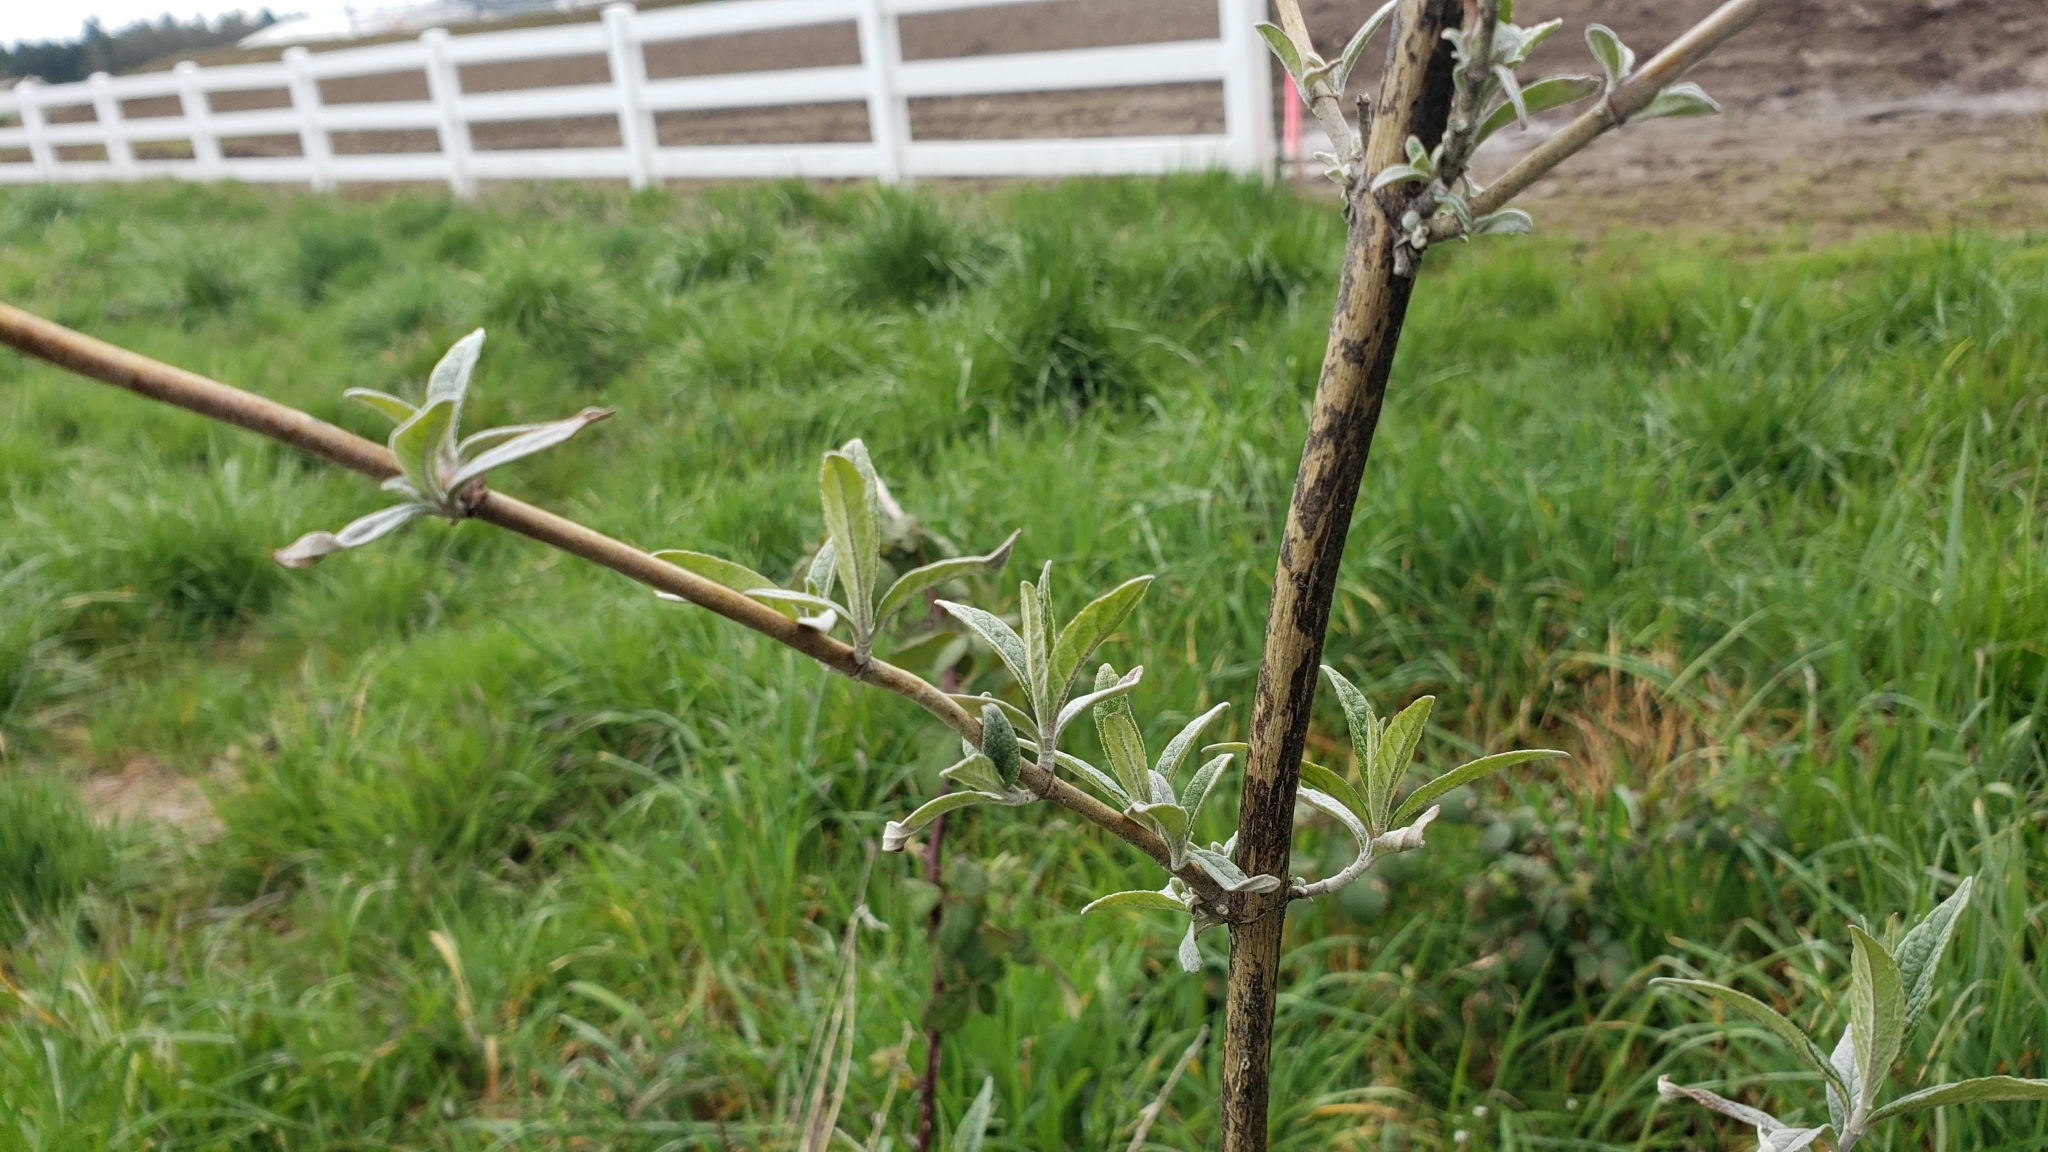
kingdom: Plantae
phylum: Tracheophyta
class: Magnoliopsida
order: Lamiales
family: Scrophulariaceae
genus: Buddleja
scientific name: Buddleja davidii
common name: Butterfly-bush
